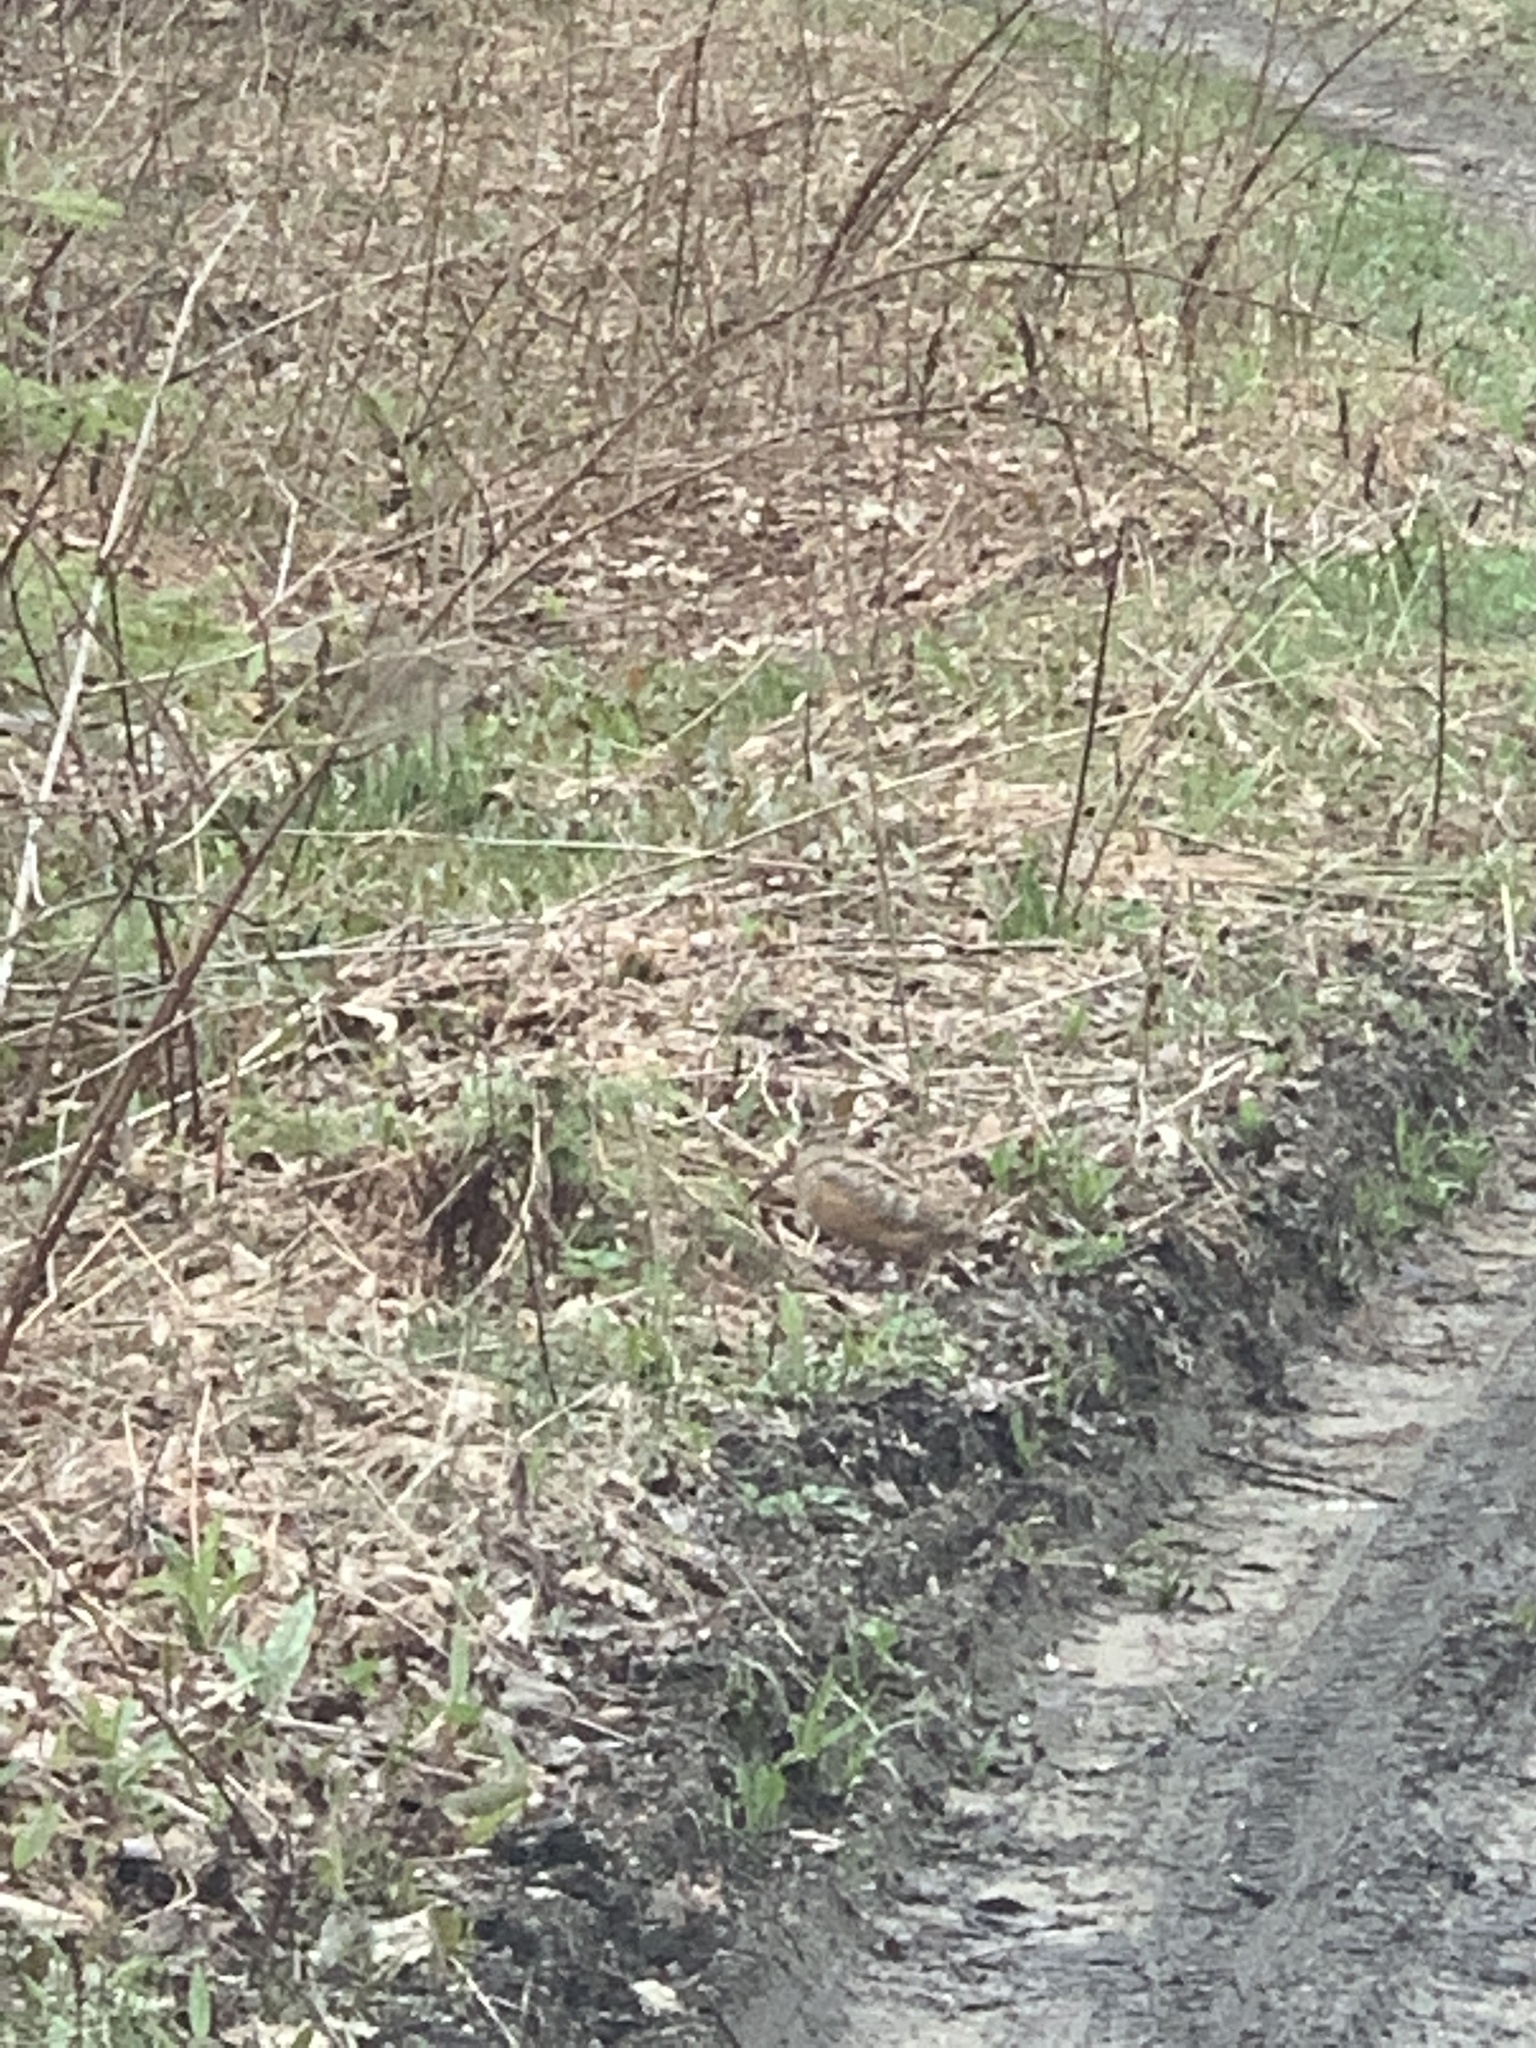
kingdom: Animalia
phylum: Chordata
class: Aves
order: Charadriiformes
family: Scolopacidae
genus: Scolopax
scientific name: Scolopax minor
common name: American woodcock
